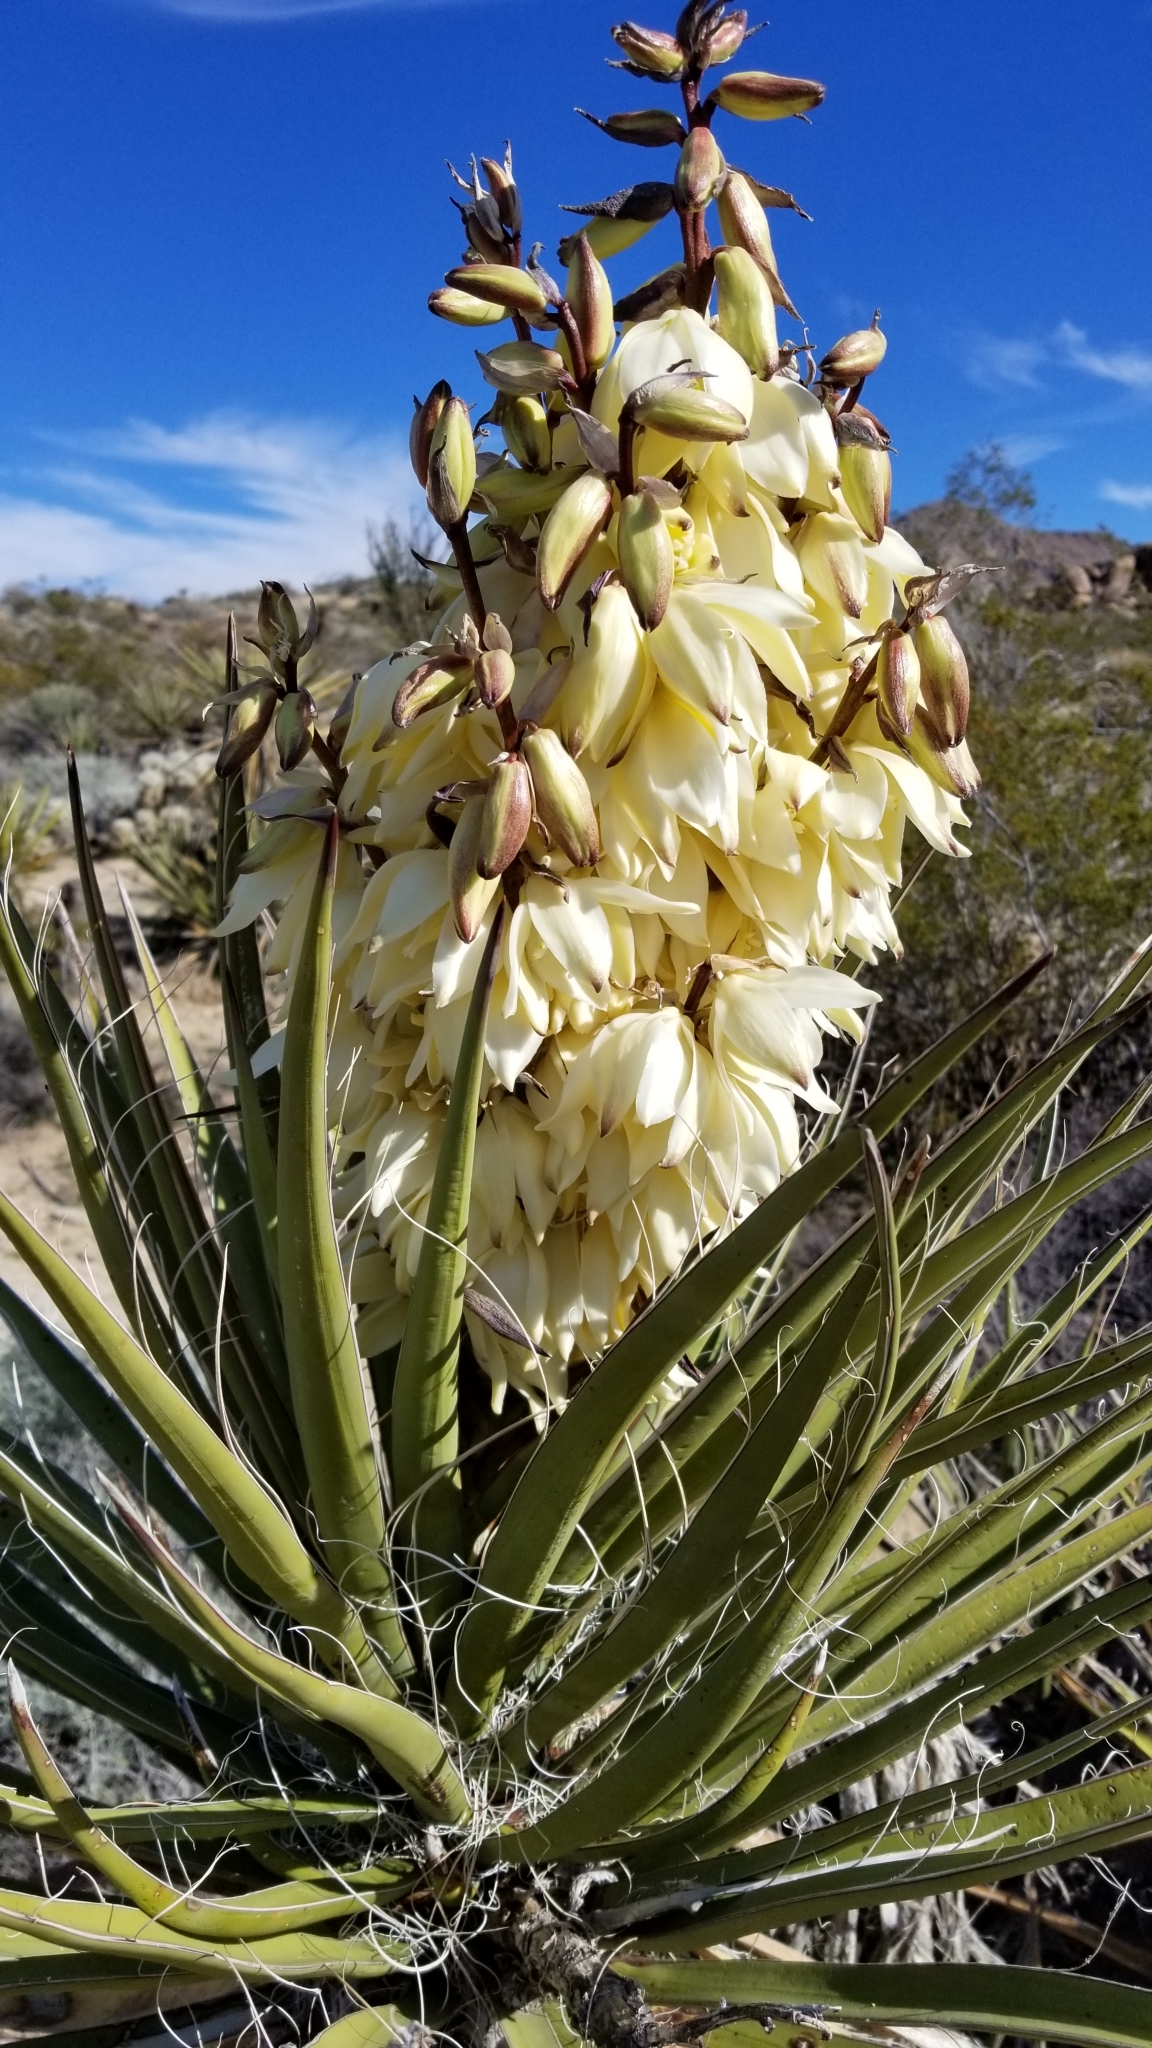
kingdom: Plantae
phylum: Tracheophyta
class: Liliopsida
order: Asparagales
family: Asparagaceae
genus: Yucca
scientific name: Yucca schidigera
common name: Mojave yucca
